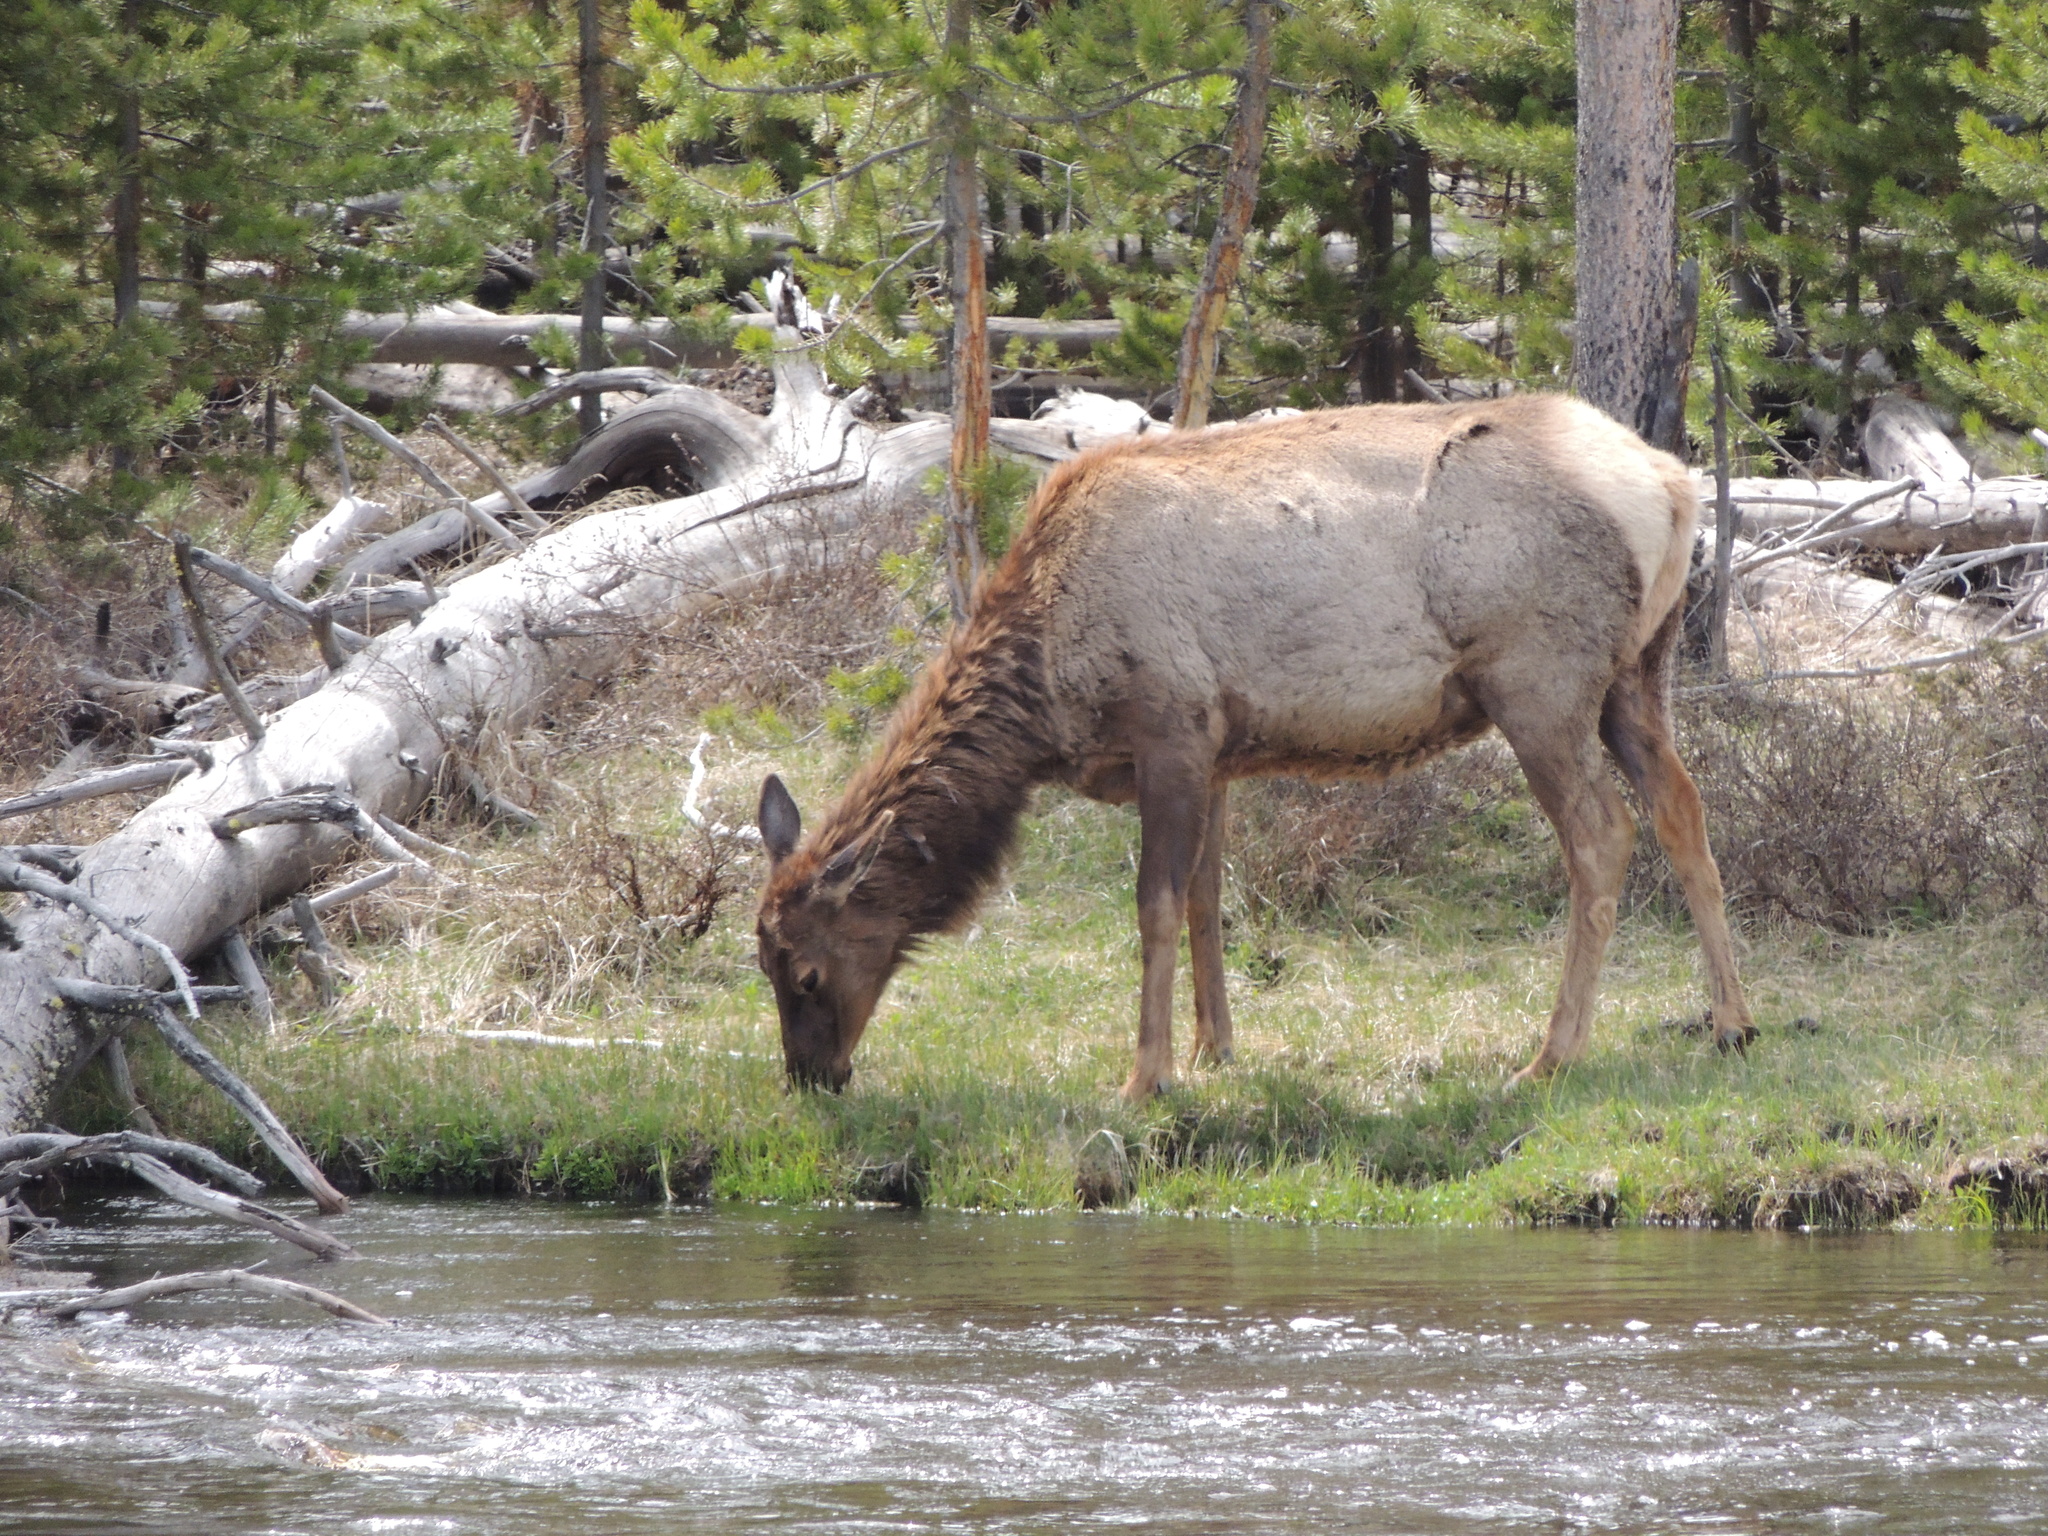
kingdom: Animalia
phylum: Chordata
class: Mammalia
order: Artiodactyla
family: Cervidae
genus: Cervus
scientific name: Cervus elaphus
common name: Red deer
